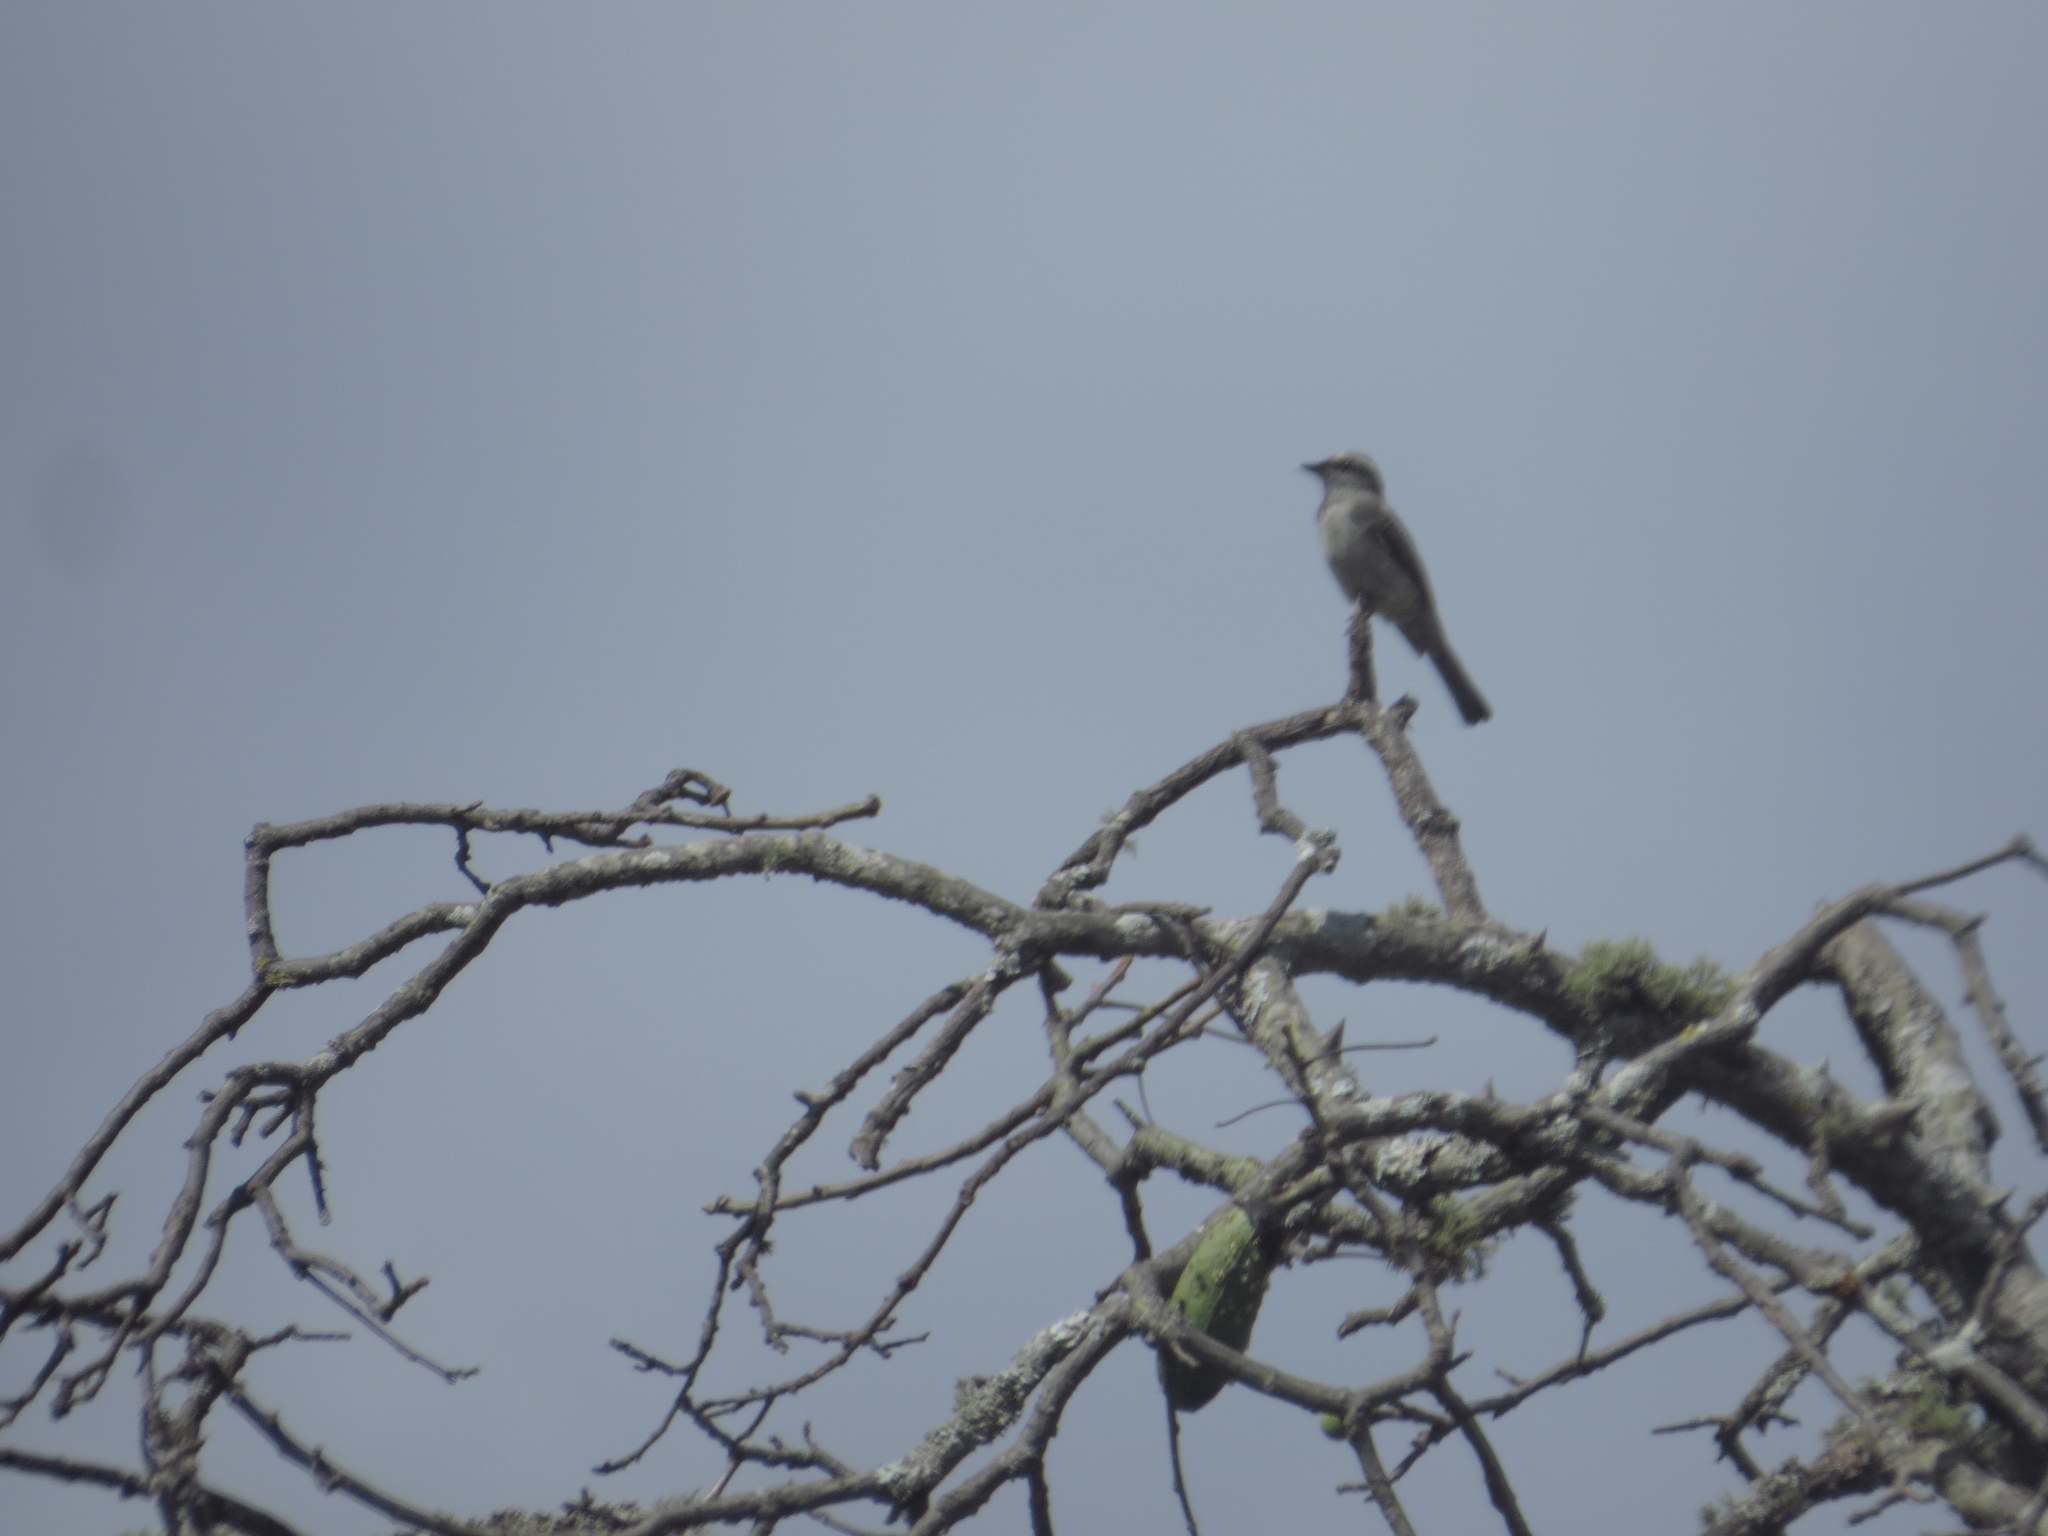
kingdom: Animalia
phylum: Chordata
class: Aves
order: Passeriformes
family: Tyrannidae
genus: Empidonomus
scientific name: Empidonomus aurantioatrocristatus
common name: Crowned slaty flycatcher
